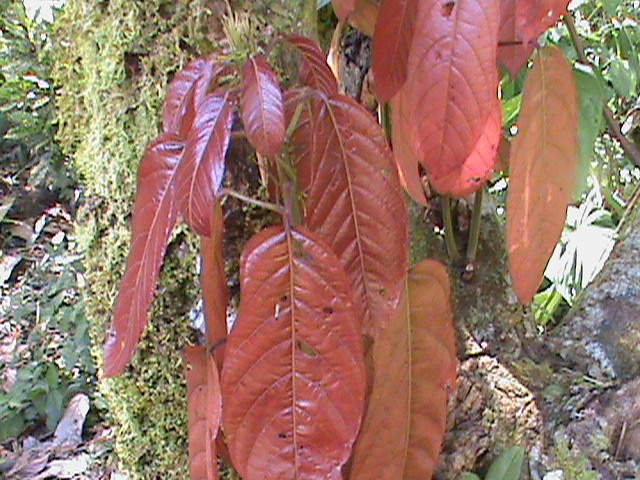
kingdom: Plantae
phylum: Tracheophyta
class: Magnoliopsida
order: Malvales
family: Malvaceae
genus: Theobroma
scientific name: Theobroma cacao
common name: Cocoa
